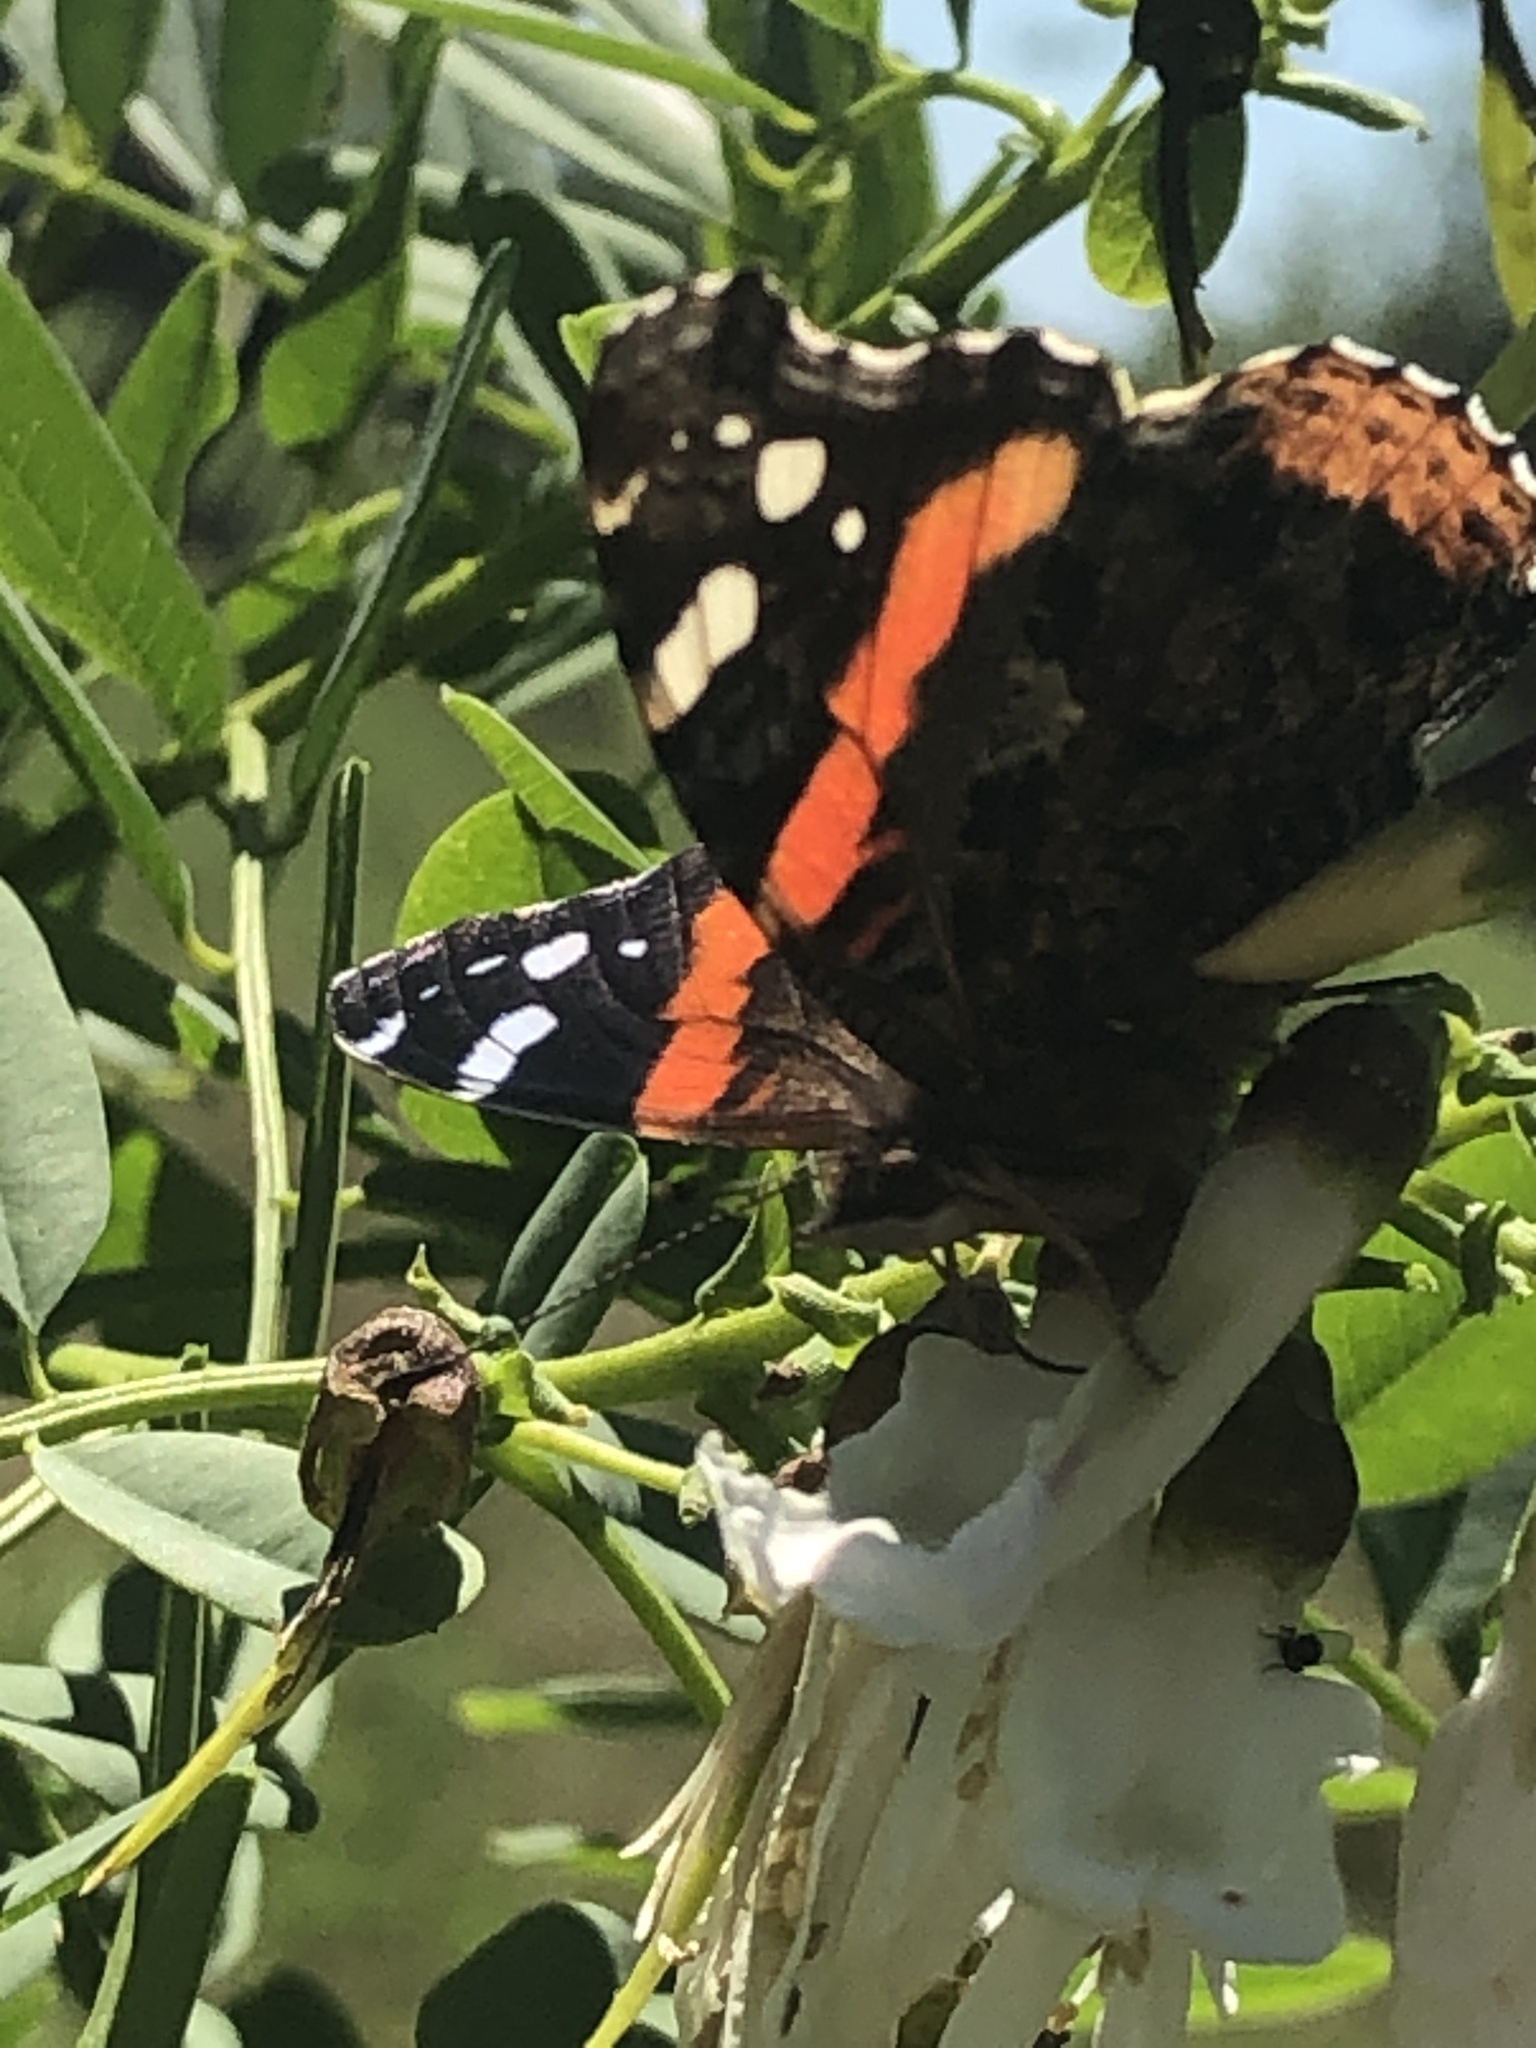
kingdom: Animalia
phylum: Arthropoda
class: Insecta
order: Lepidoptera
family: Nymphalidae
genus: Vanessa
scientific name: Vanessa atalanta
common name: Red admiral
